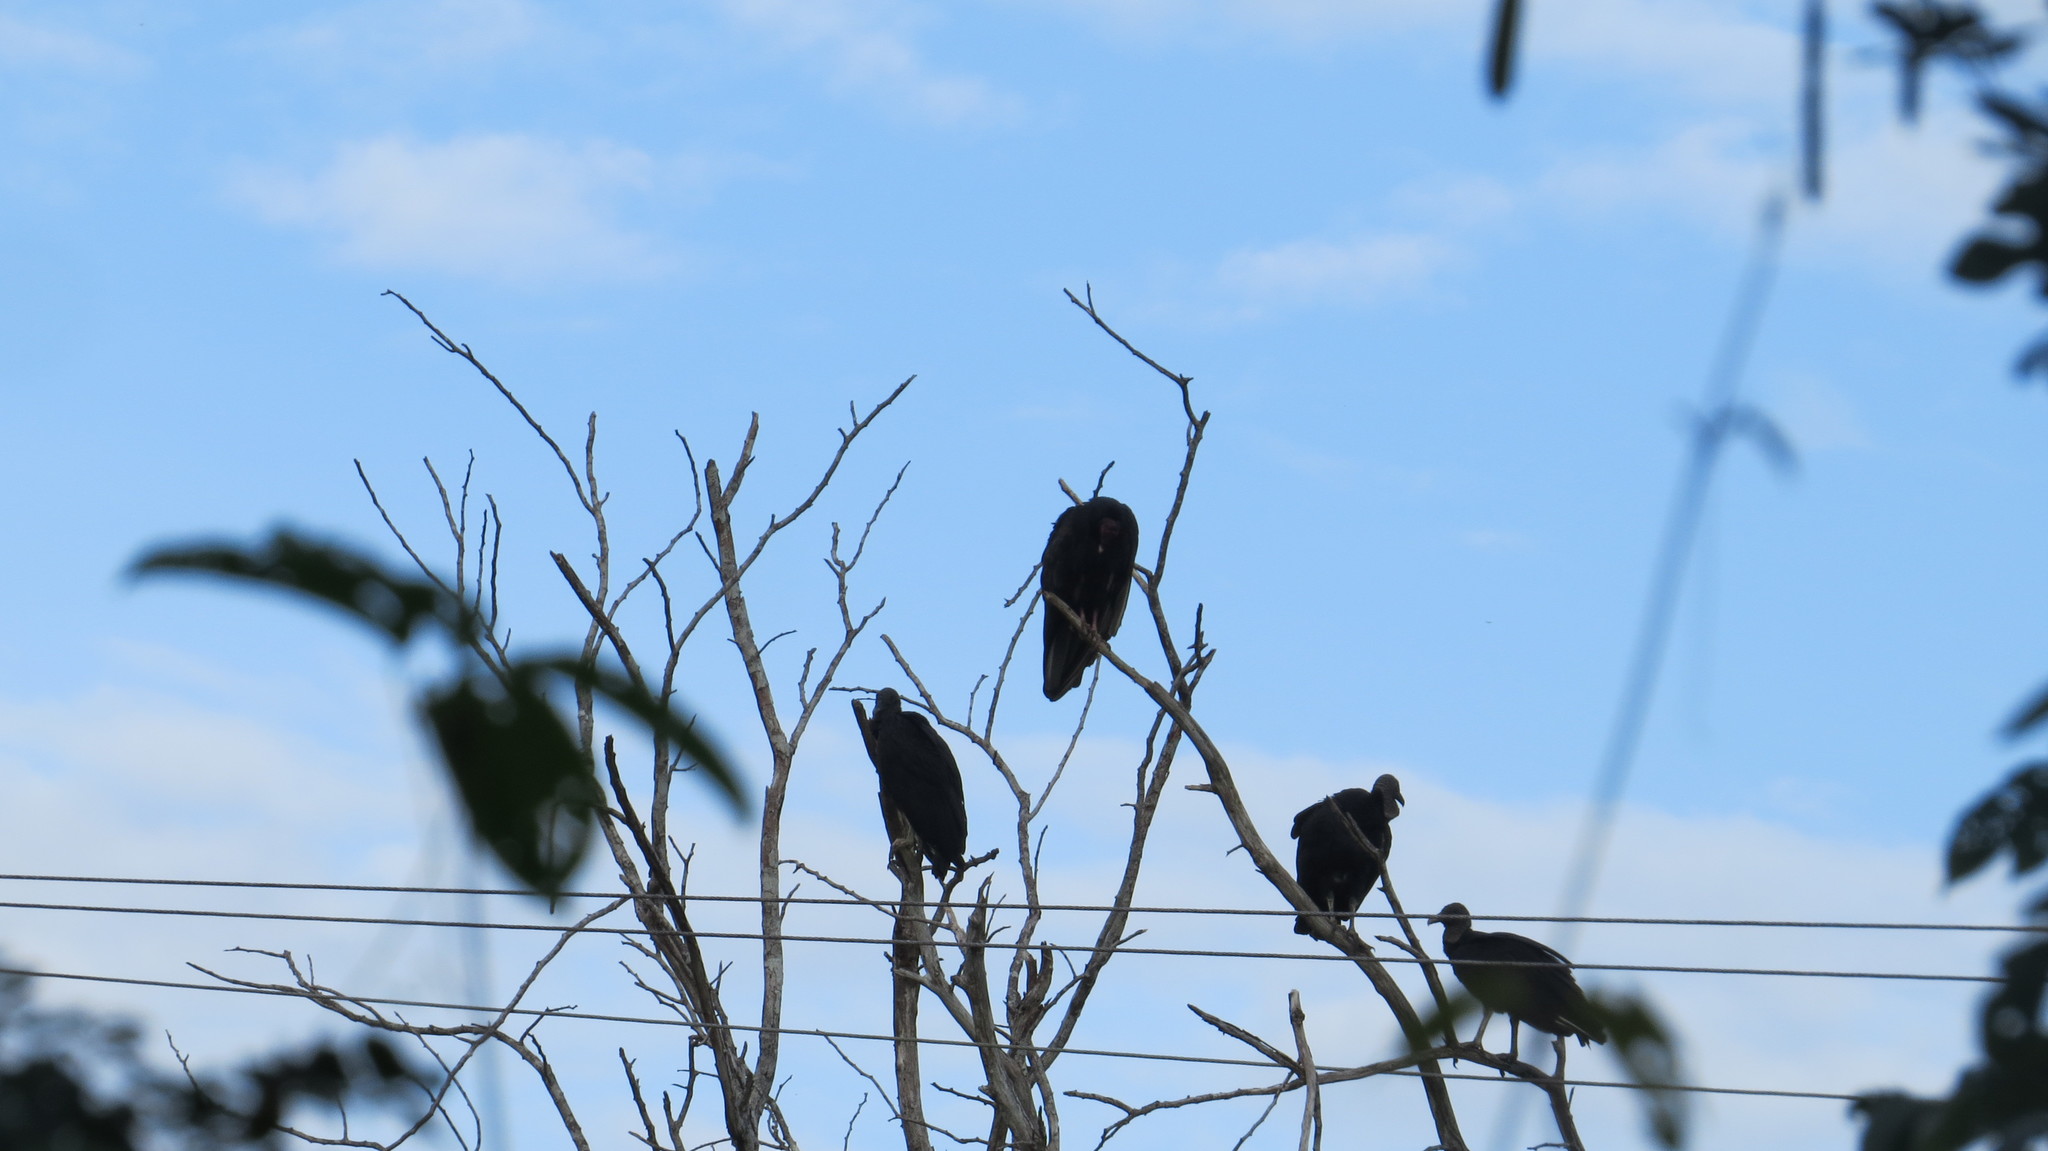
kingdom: Animalia
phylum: Chordata
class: Aves
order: Accipitriformes
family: Cathartidae
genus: Coragyps
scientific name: Coragyps atratus
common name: Black vulture
